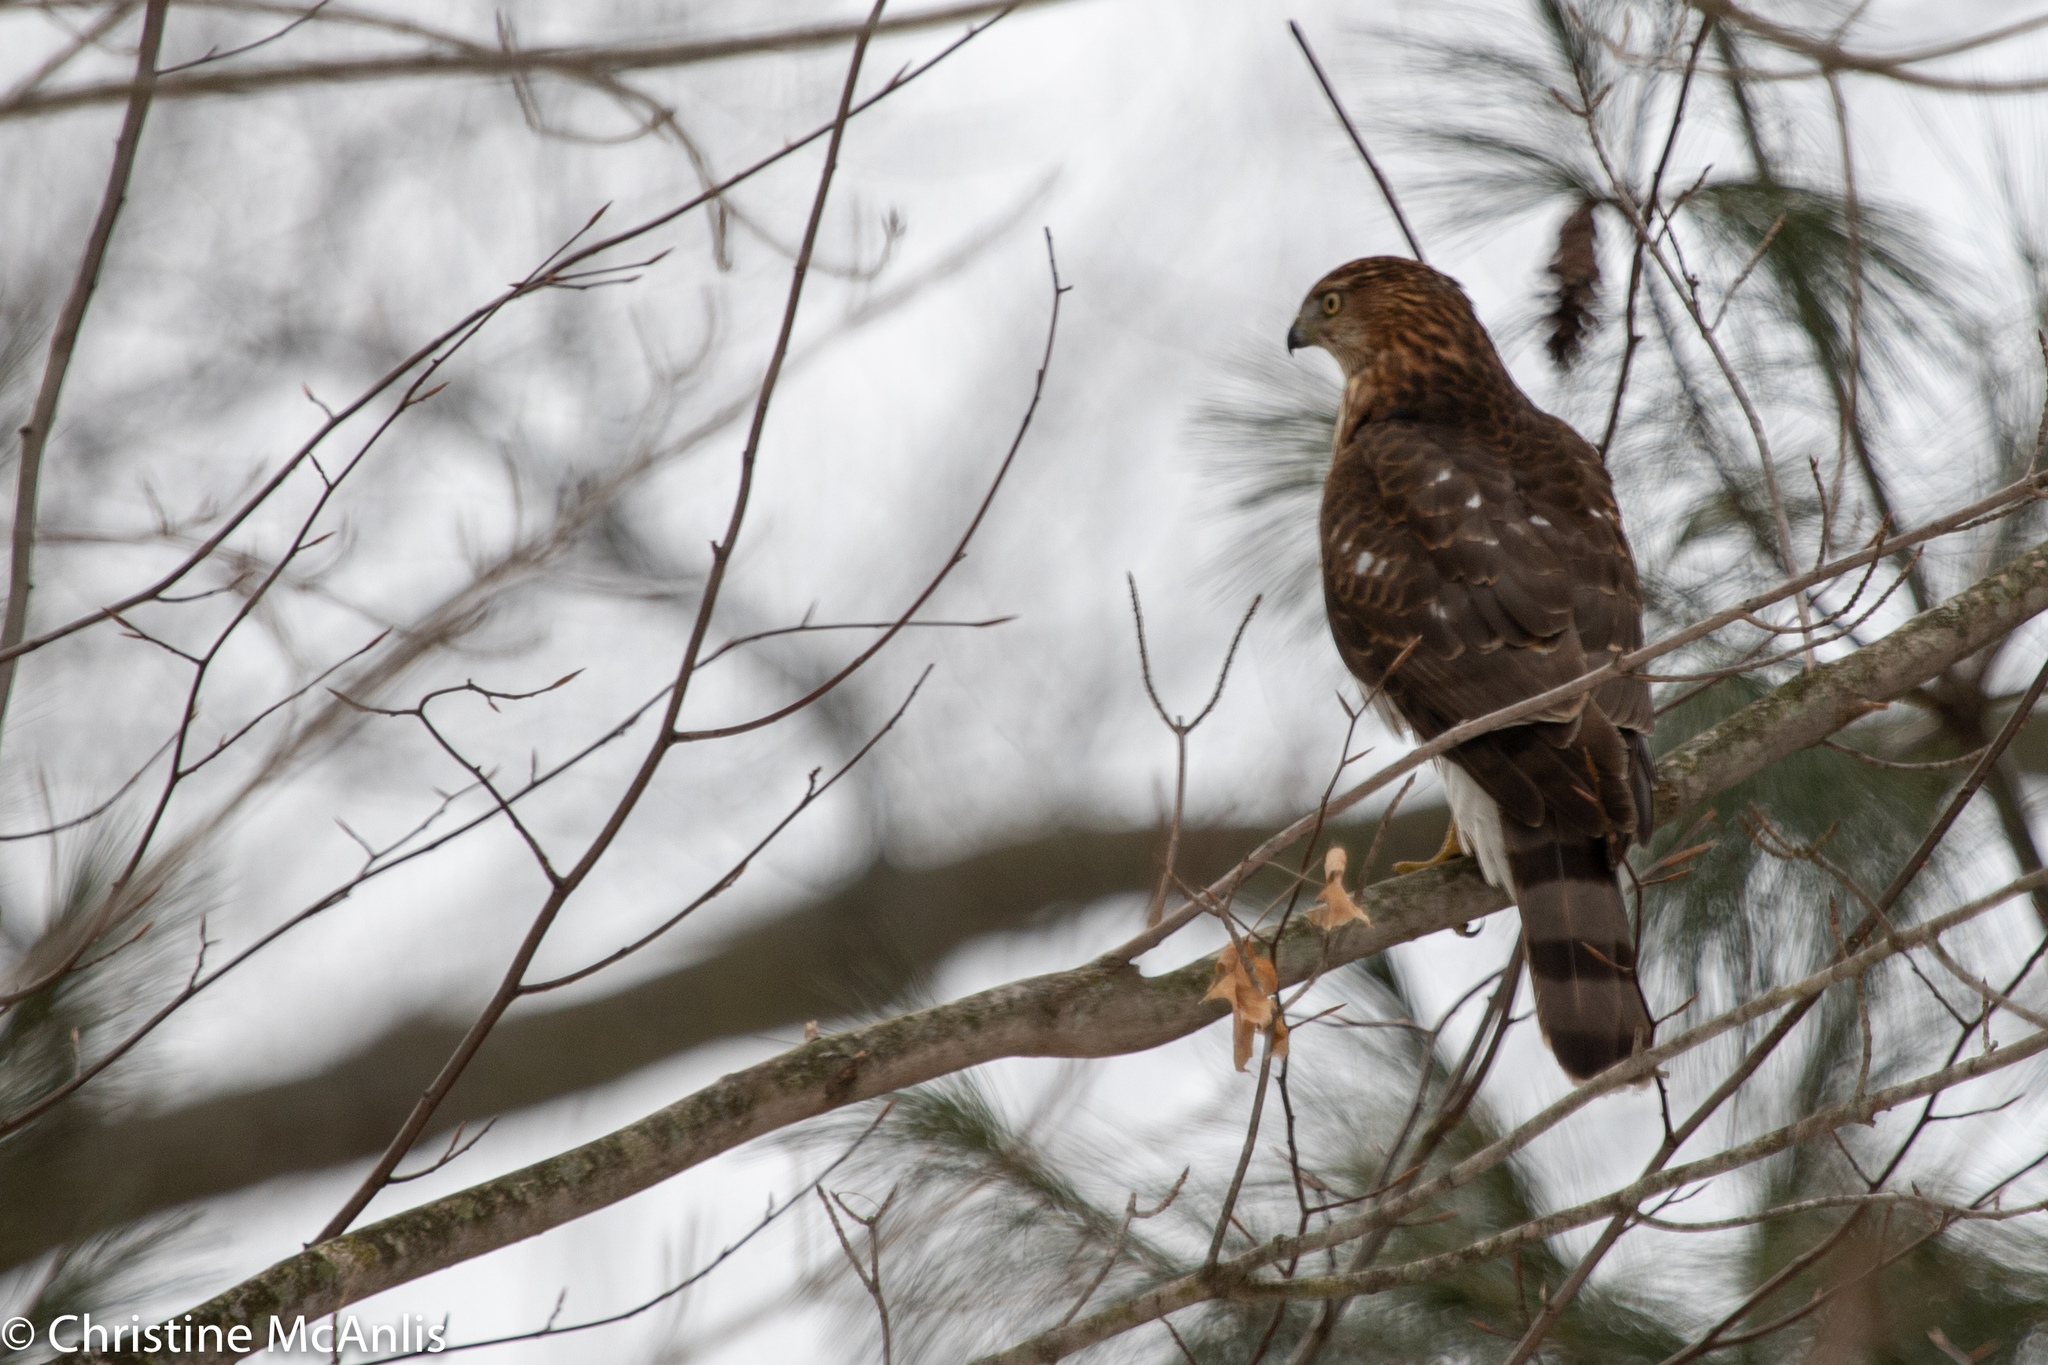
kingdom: Animalia
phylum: Chordata
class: Aves
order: Accipitriformes
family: Accipitridae
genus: Accipiter
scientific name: Accipiter cooperii
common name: Cooper's hawk
